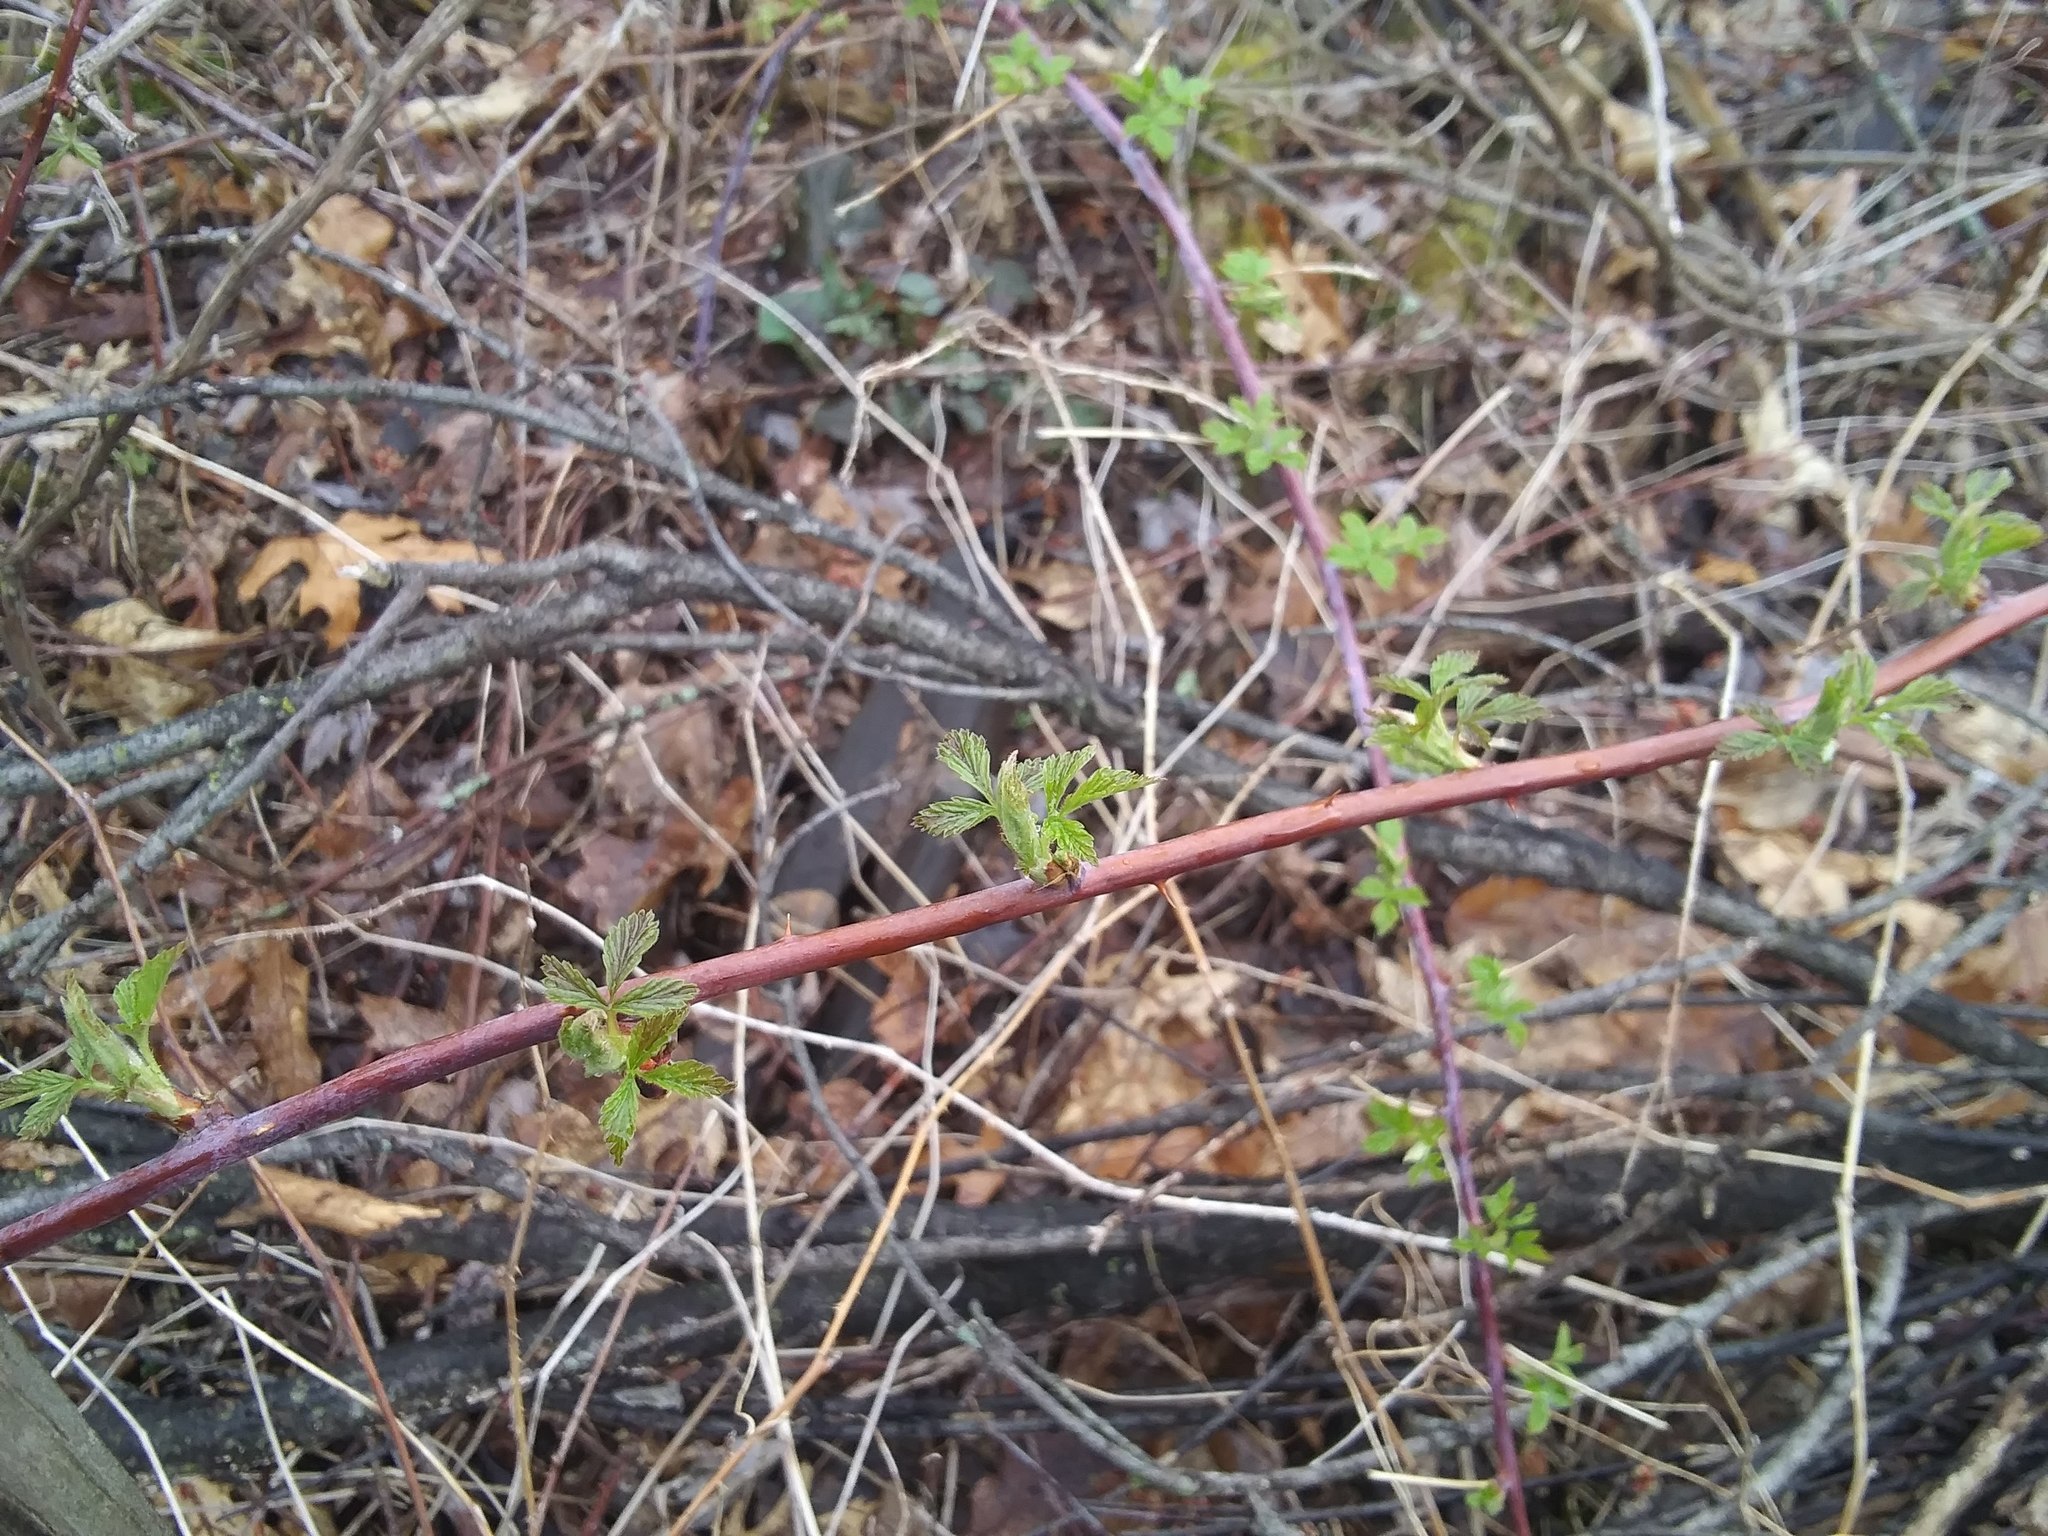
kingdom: Plantae
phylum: Tracheophyta
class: Magnoliopsida
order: Rosales
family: Rosaceae
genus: Rubus
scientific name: Rubus occidentalis
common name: Black raspberry
